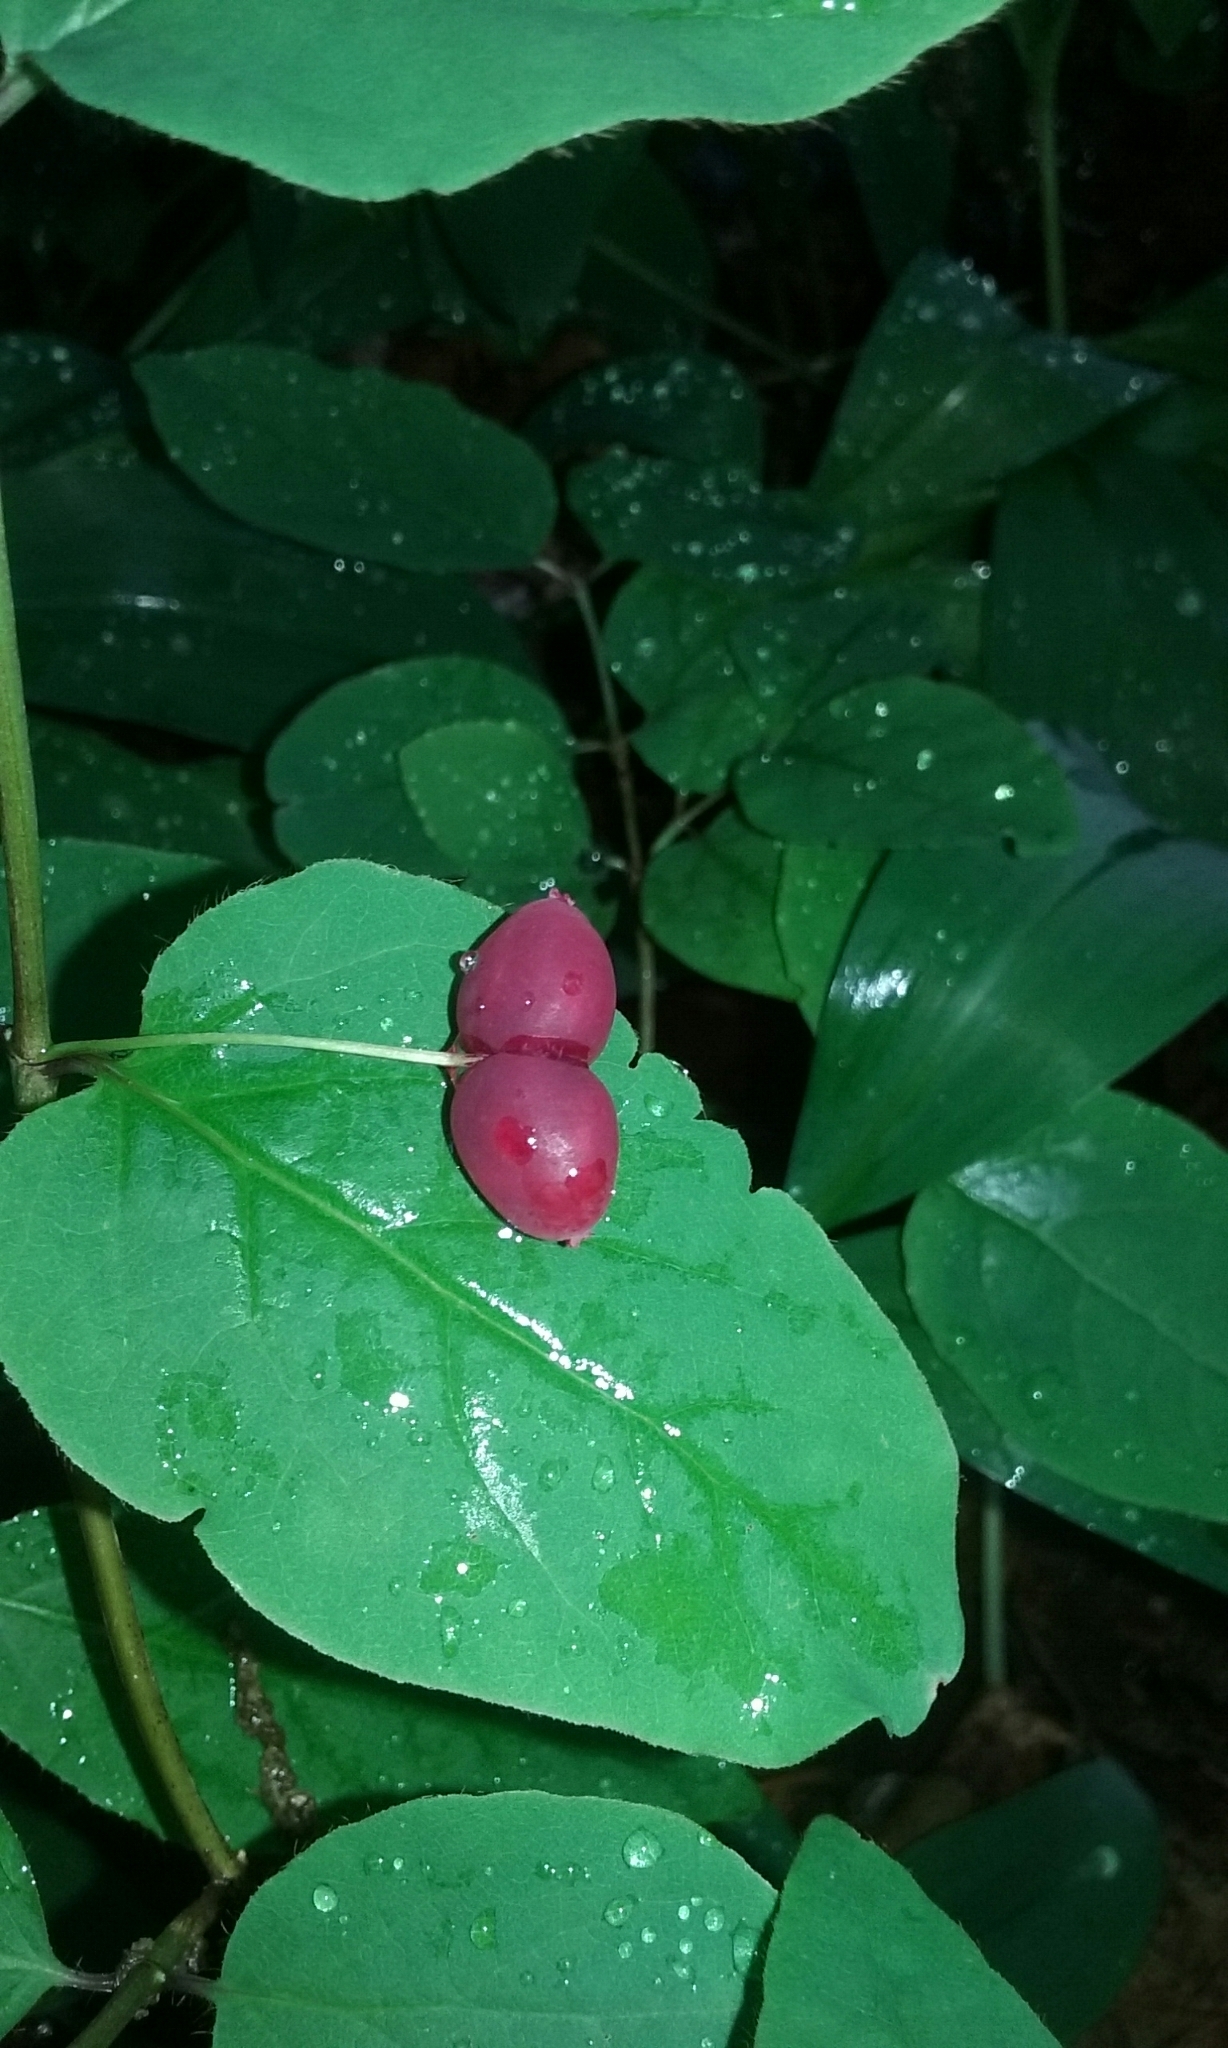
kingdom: Plantae
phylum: Tracheophyta
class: Magnoliopsida
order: Dipsacales
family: Caprifoliaceae
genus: Lonicera
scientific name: Lonicera canadensis
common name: American fly-honeysuckle
